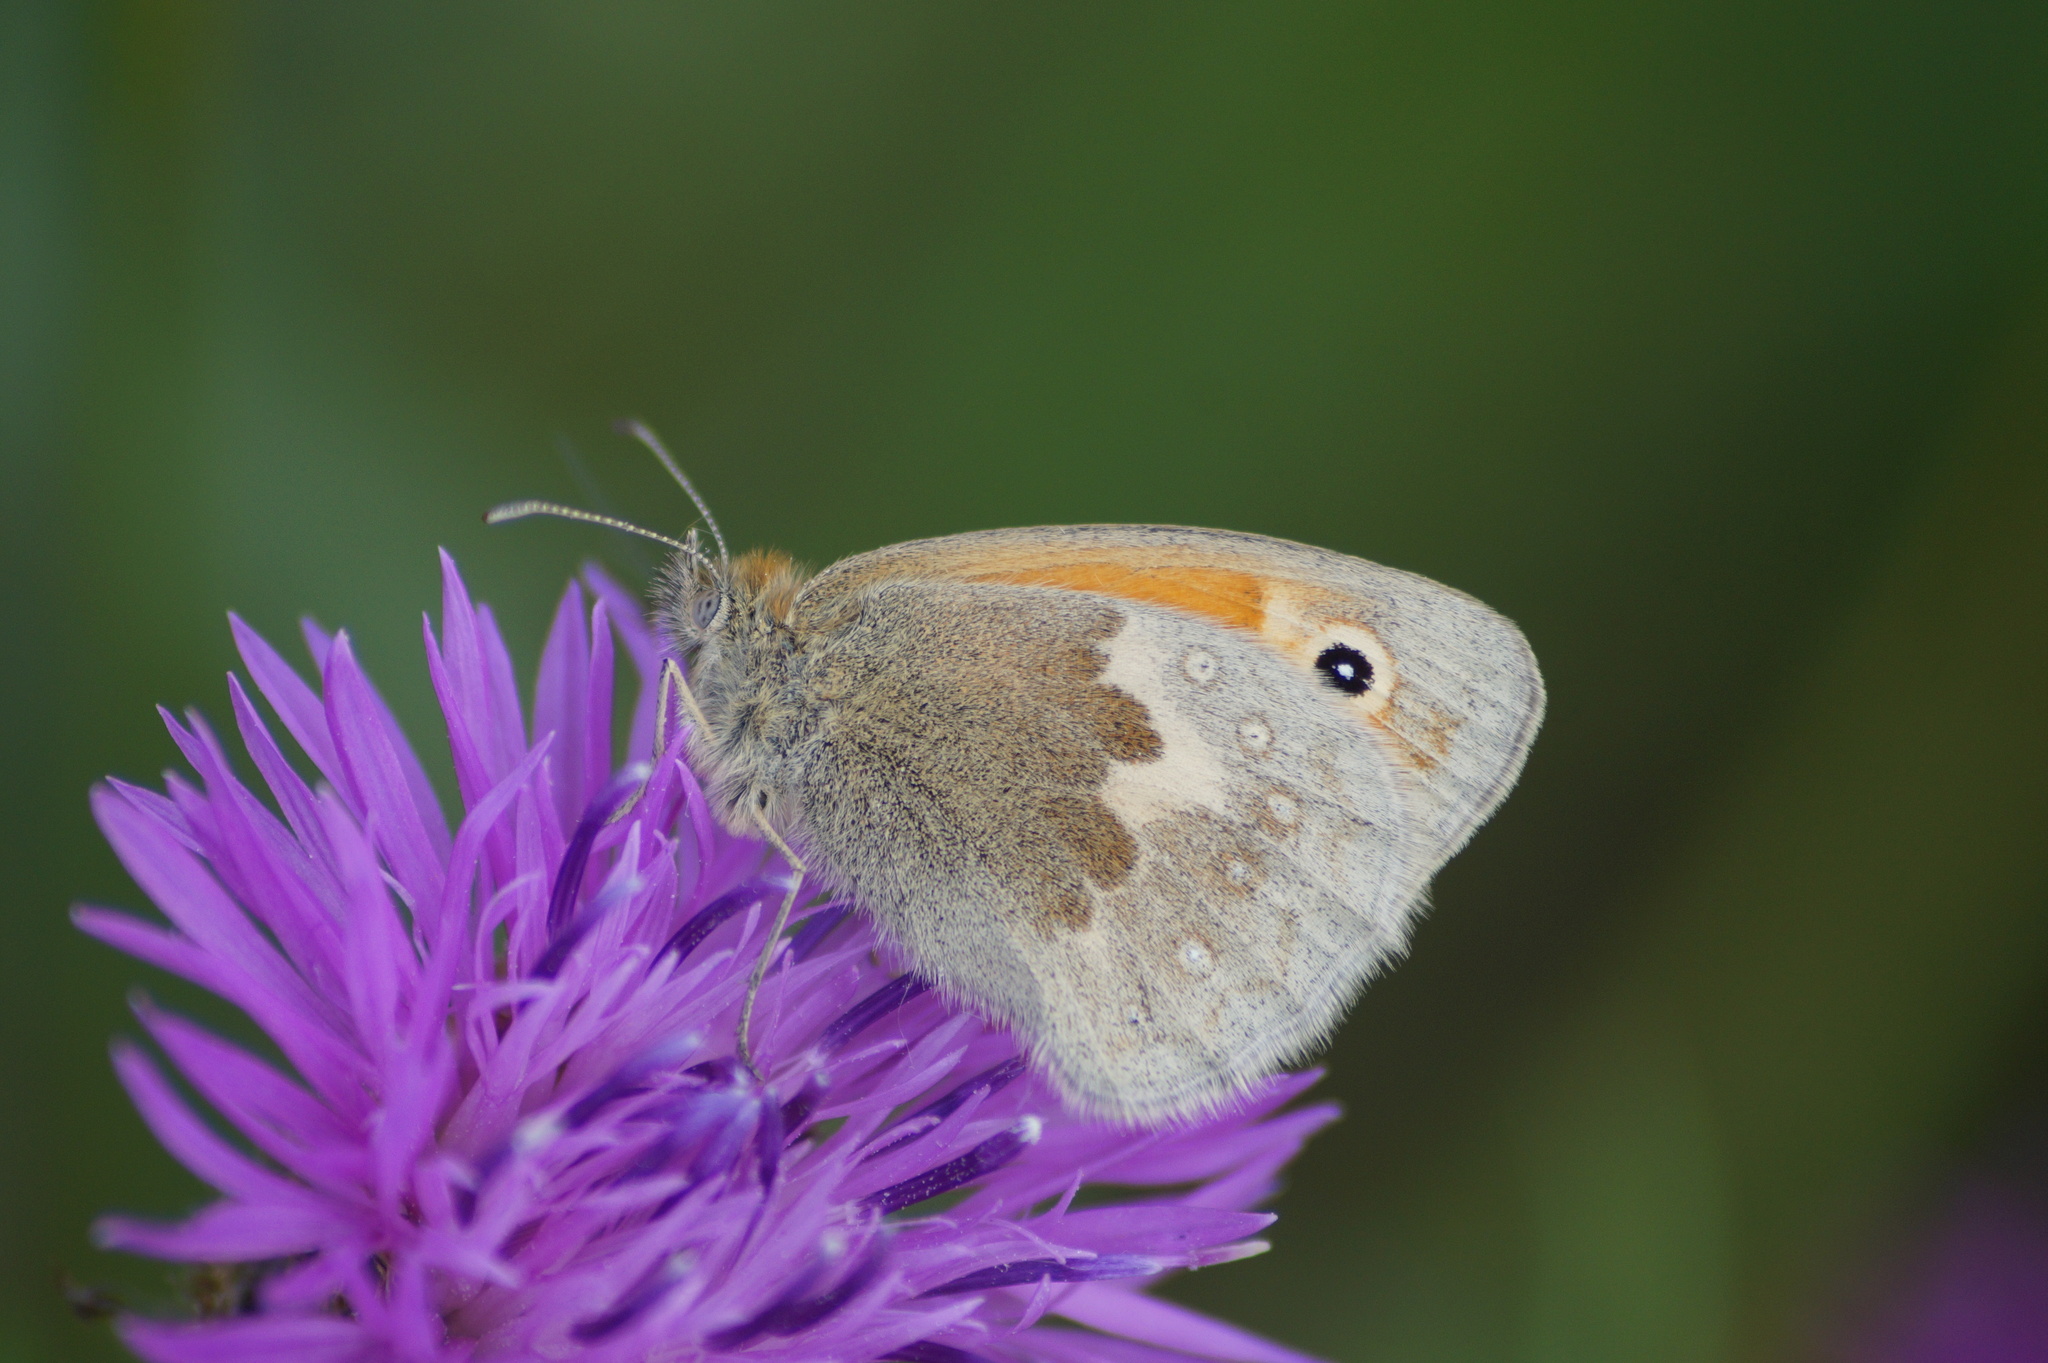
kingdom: Animalia
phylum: Arthropoda
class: Insecta
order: Lepidoptera
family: Nymphalidae
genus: Coenonympha
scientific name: Coenonympha pamphilus
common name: Small heath
